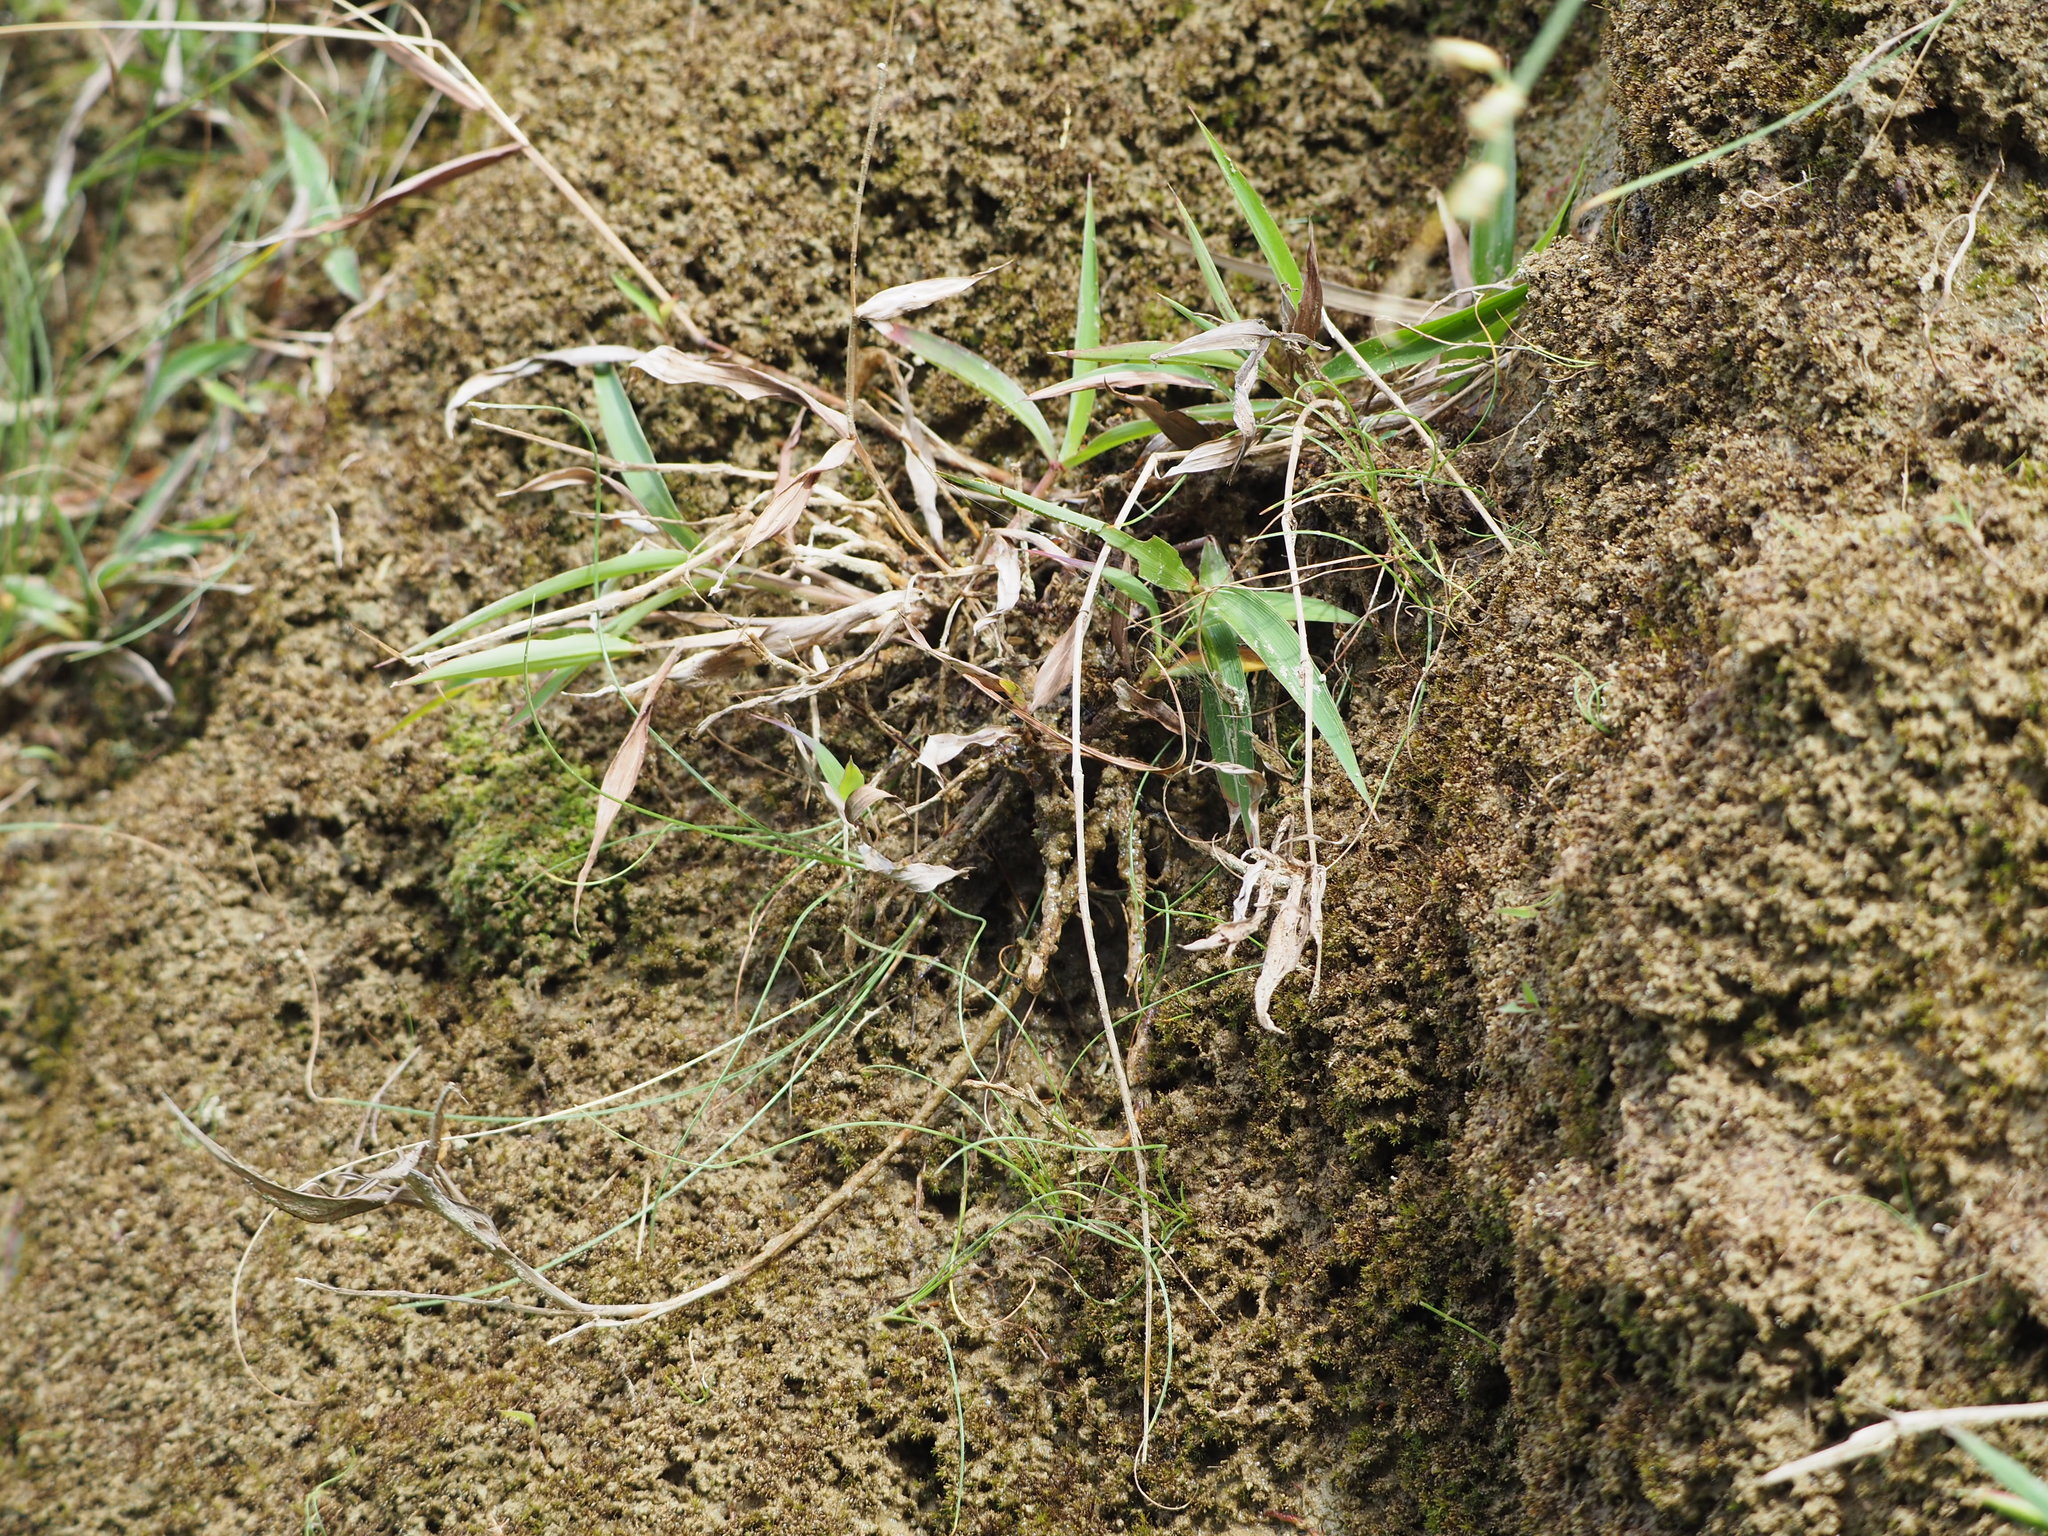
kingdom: Plantae
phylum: Tracheophyta
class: Liliopsida
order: Poales
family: Poaceae
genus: Ischaemum
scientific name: Ischaemum aristatum
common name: Toco grass
